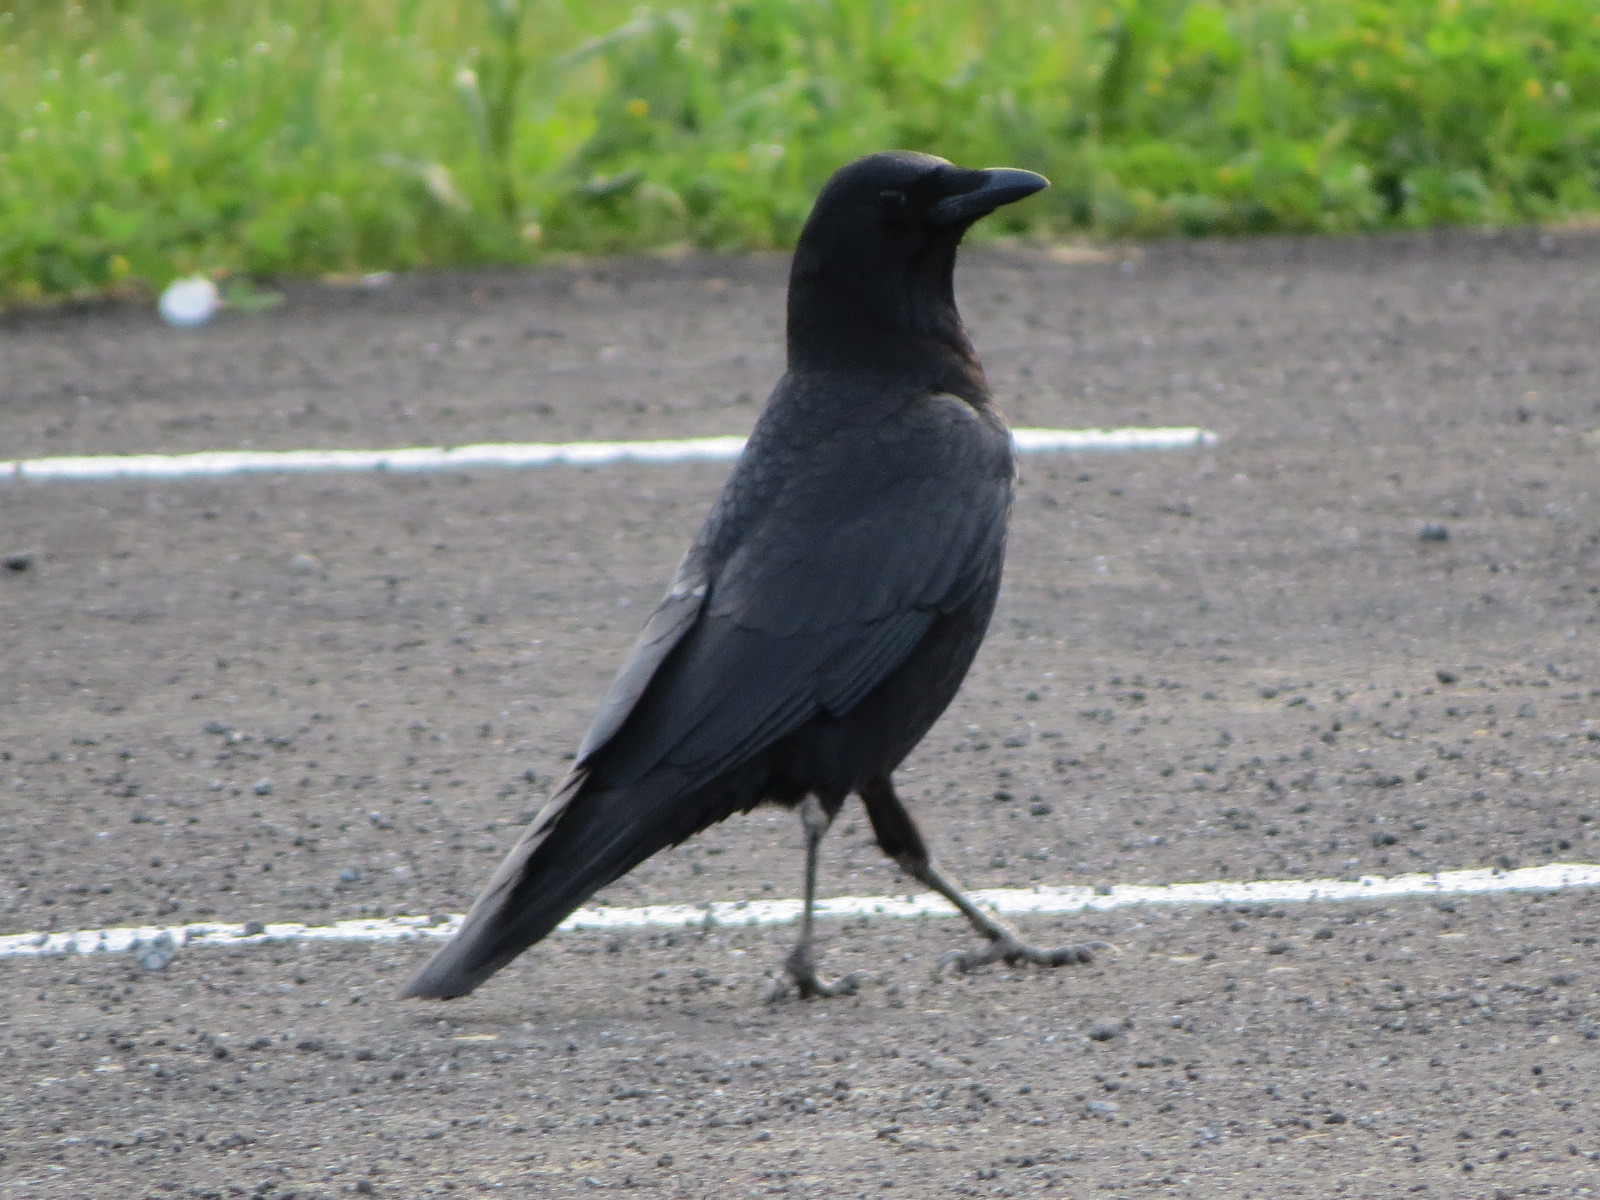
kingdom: Animalia
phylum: Chordata
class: Aves
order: Passeriformes
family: Corvidae
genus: Corvus
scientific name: Corvus brachyrhynchos
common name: American crow
